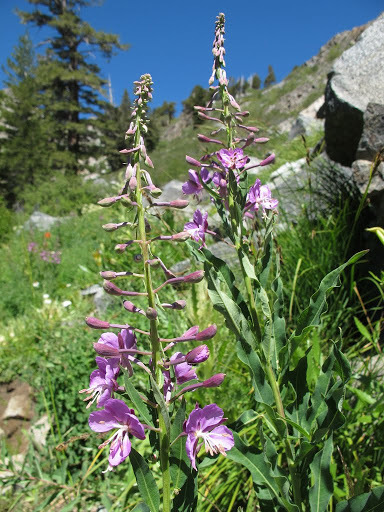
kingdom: Plantae
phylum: Tracheophyta
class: Magnoliopsida
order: Myrtales
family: Onagraceae
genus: Chamaenerion
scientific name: Chamaenerion angustifolium
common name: Fireweed
